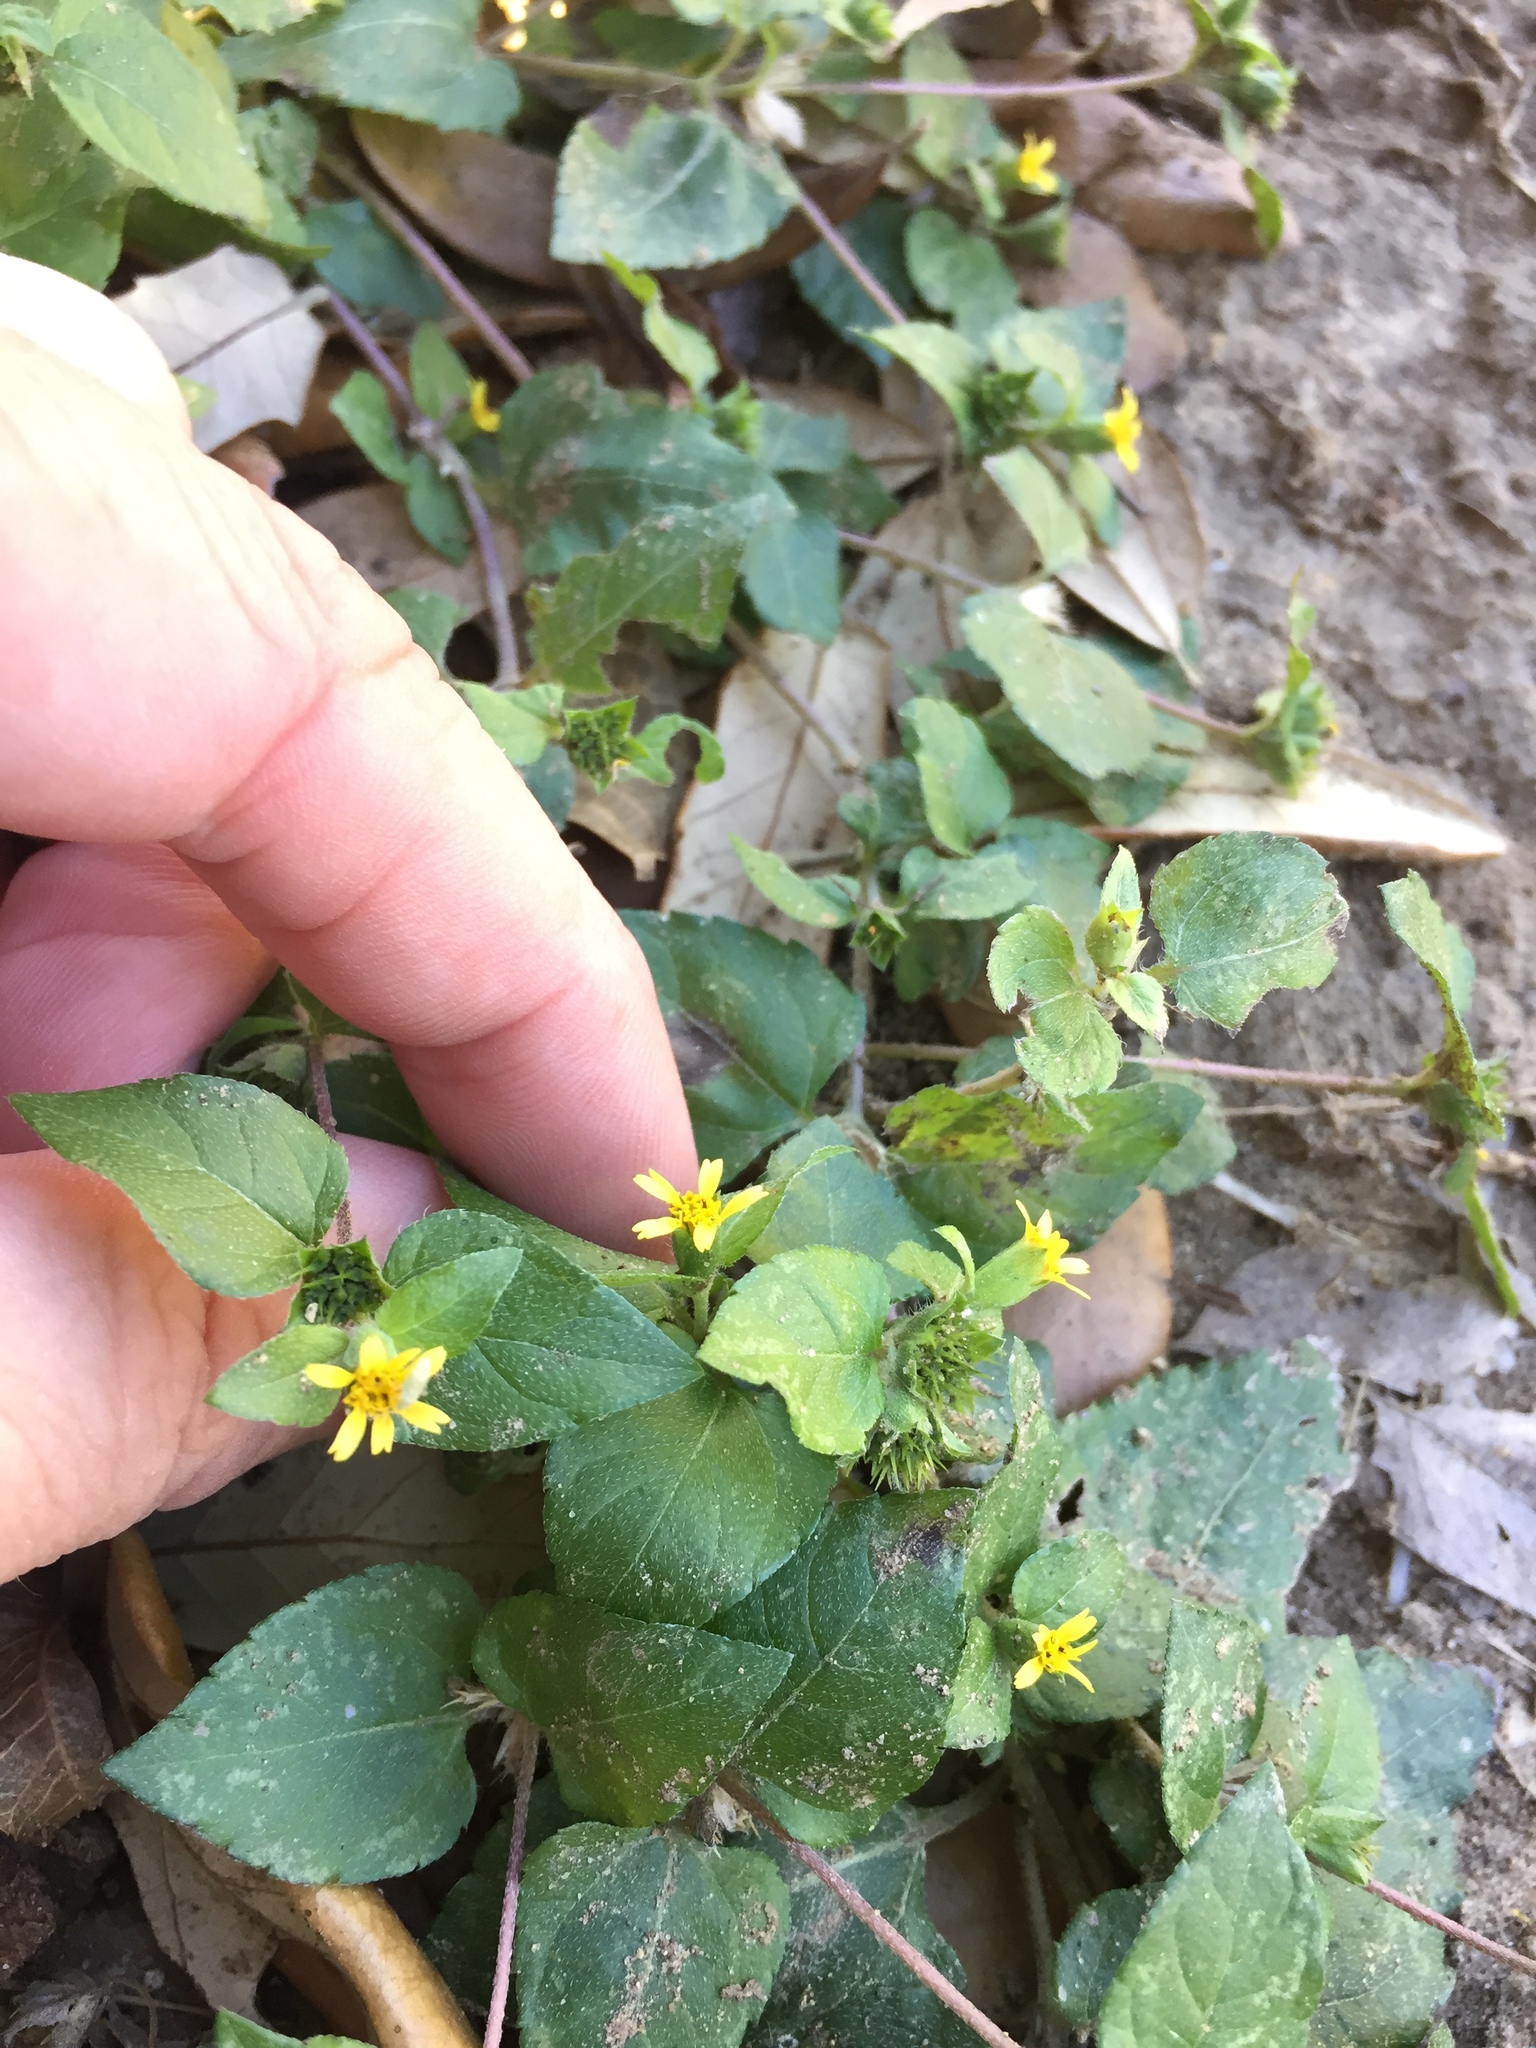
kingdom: Plantae
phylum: Tracheophyta
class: Magnoliopsida
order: Asterales
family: Asteraceae
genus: Calyptocarpus
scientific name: Calyptocarpus vialis
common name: Straggler daisy
